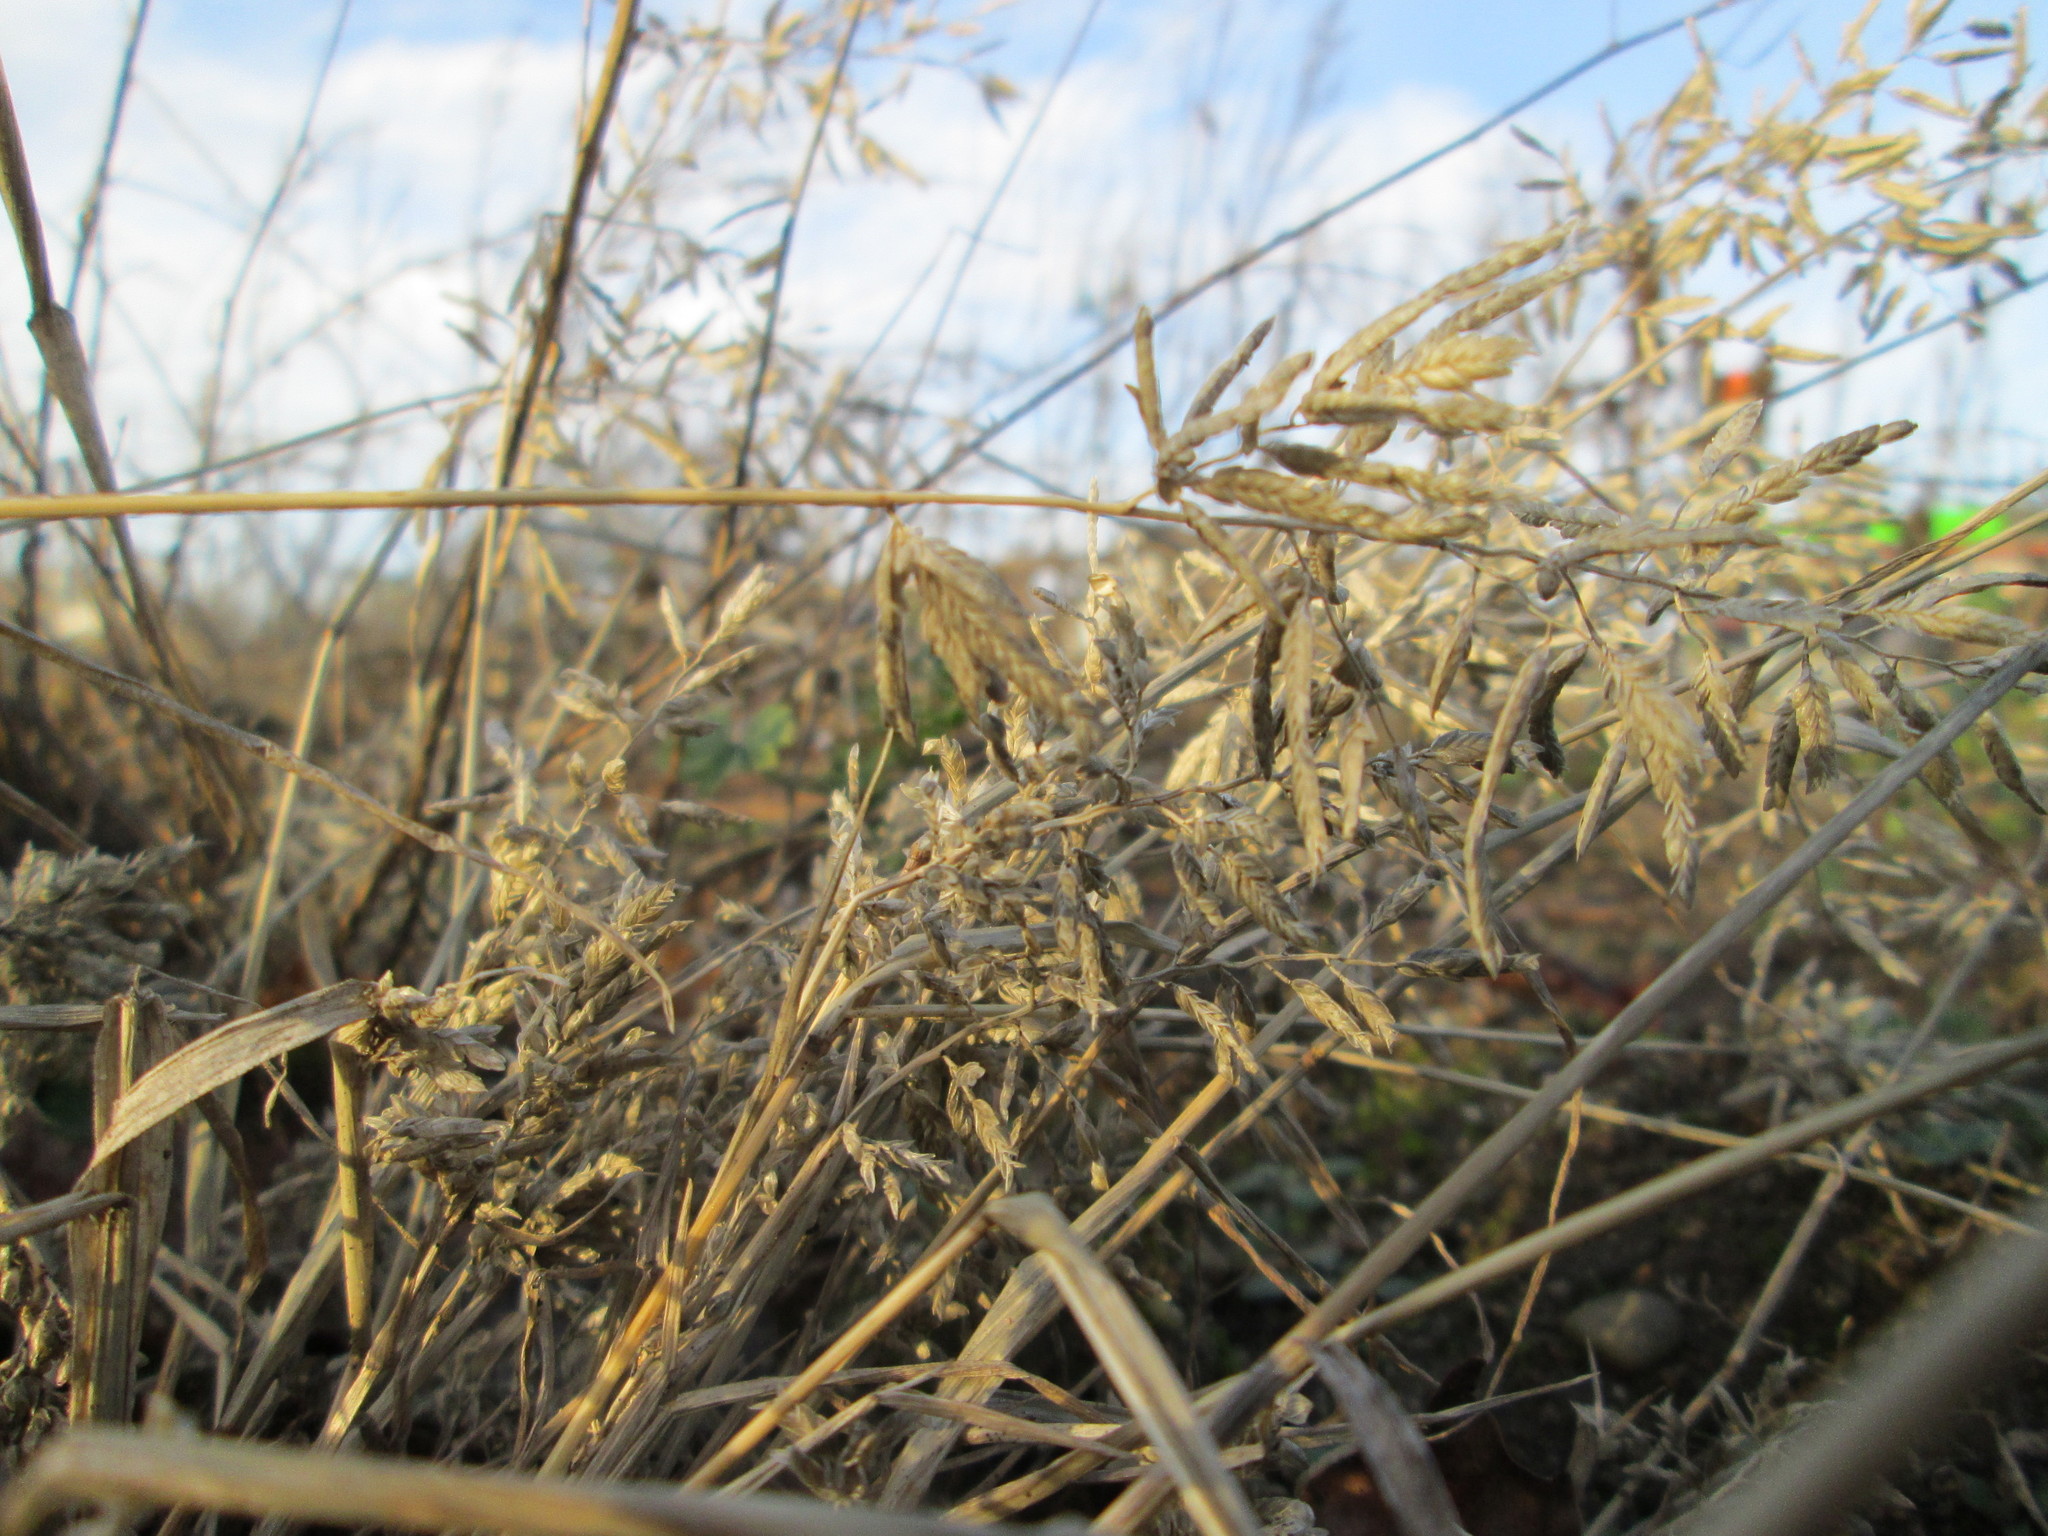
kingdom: Plantae
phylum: Tracheophyta
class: Liliopsida
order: Poales
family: Poaceae
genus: Eragrostis
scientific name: Eragrostis minor
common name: Small love-grass
